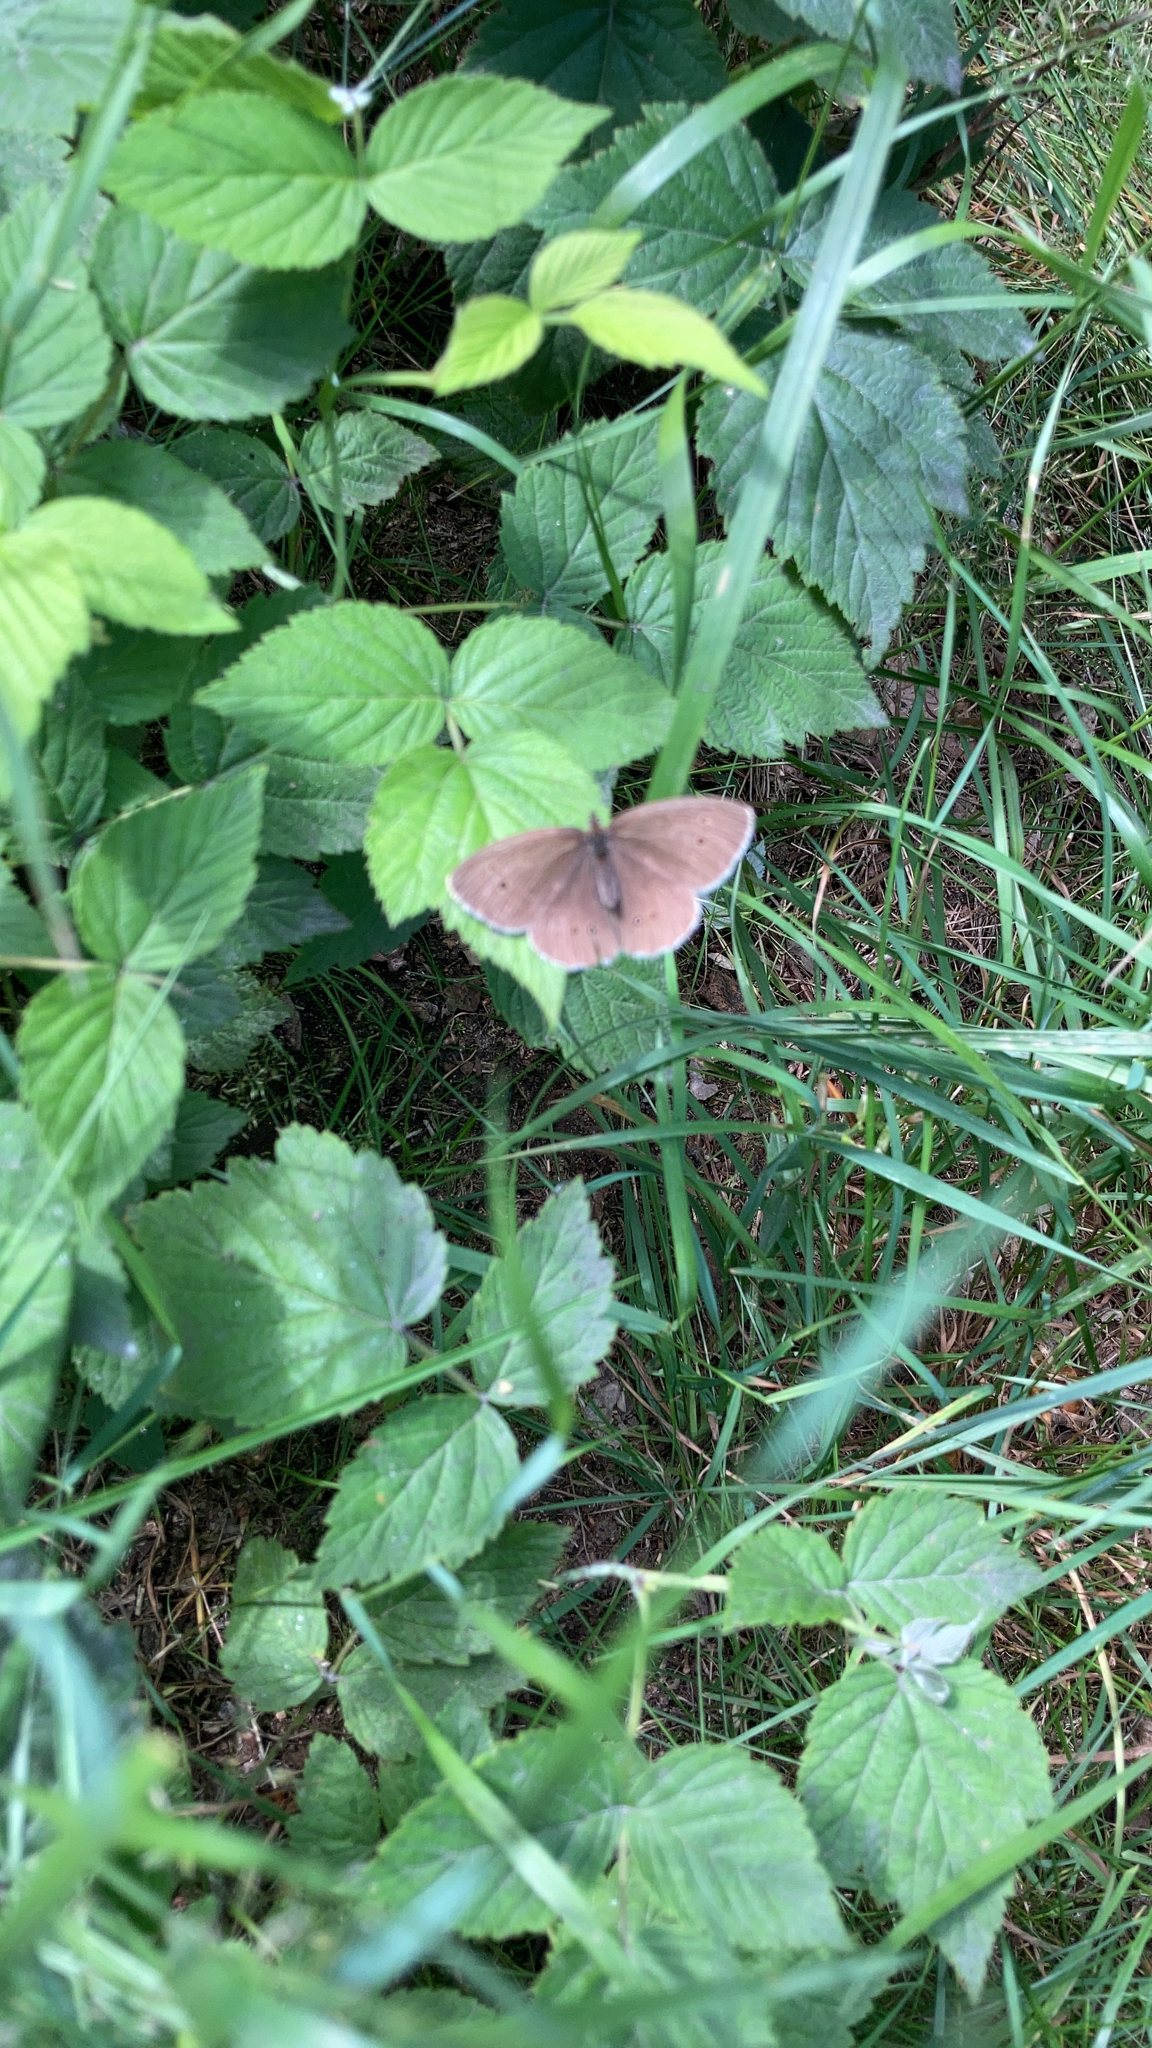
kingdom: Animalia
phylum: Arthropoda
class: Insecta
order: Lepidoptera
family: Nymphalidae
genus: Aphantopus
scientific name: Aphantopus hyperantus
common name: Ringlet
